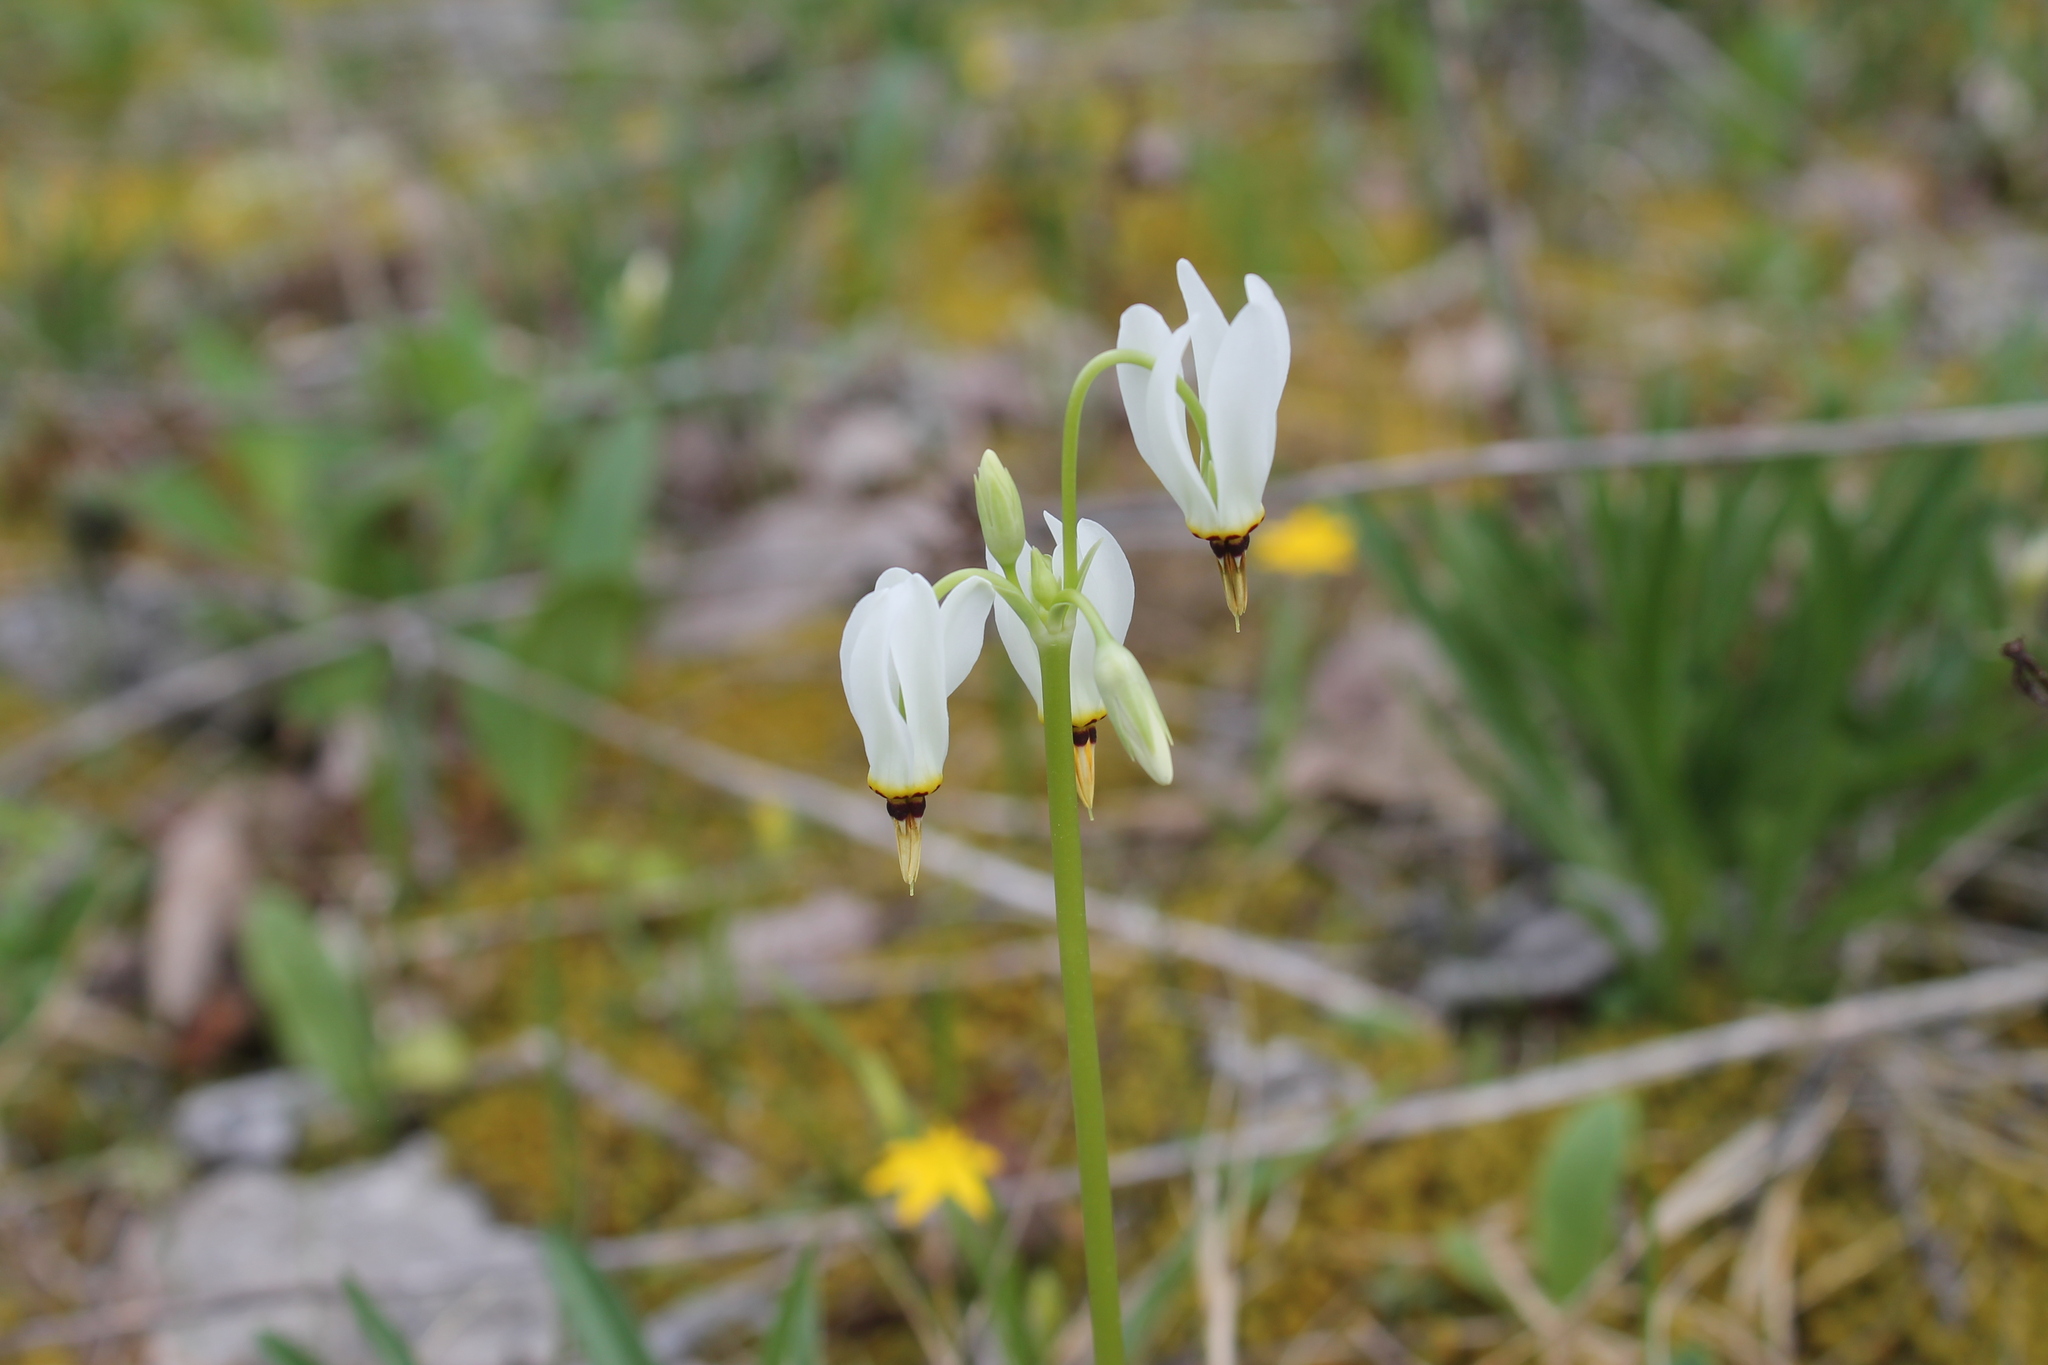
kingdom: Plantae
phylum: Tracheophyta
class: Magnoliopsida
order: Ericales
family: Primulaceae
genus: Dodecatheon
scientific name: Dodecatheon meadia
